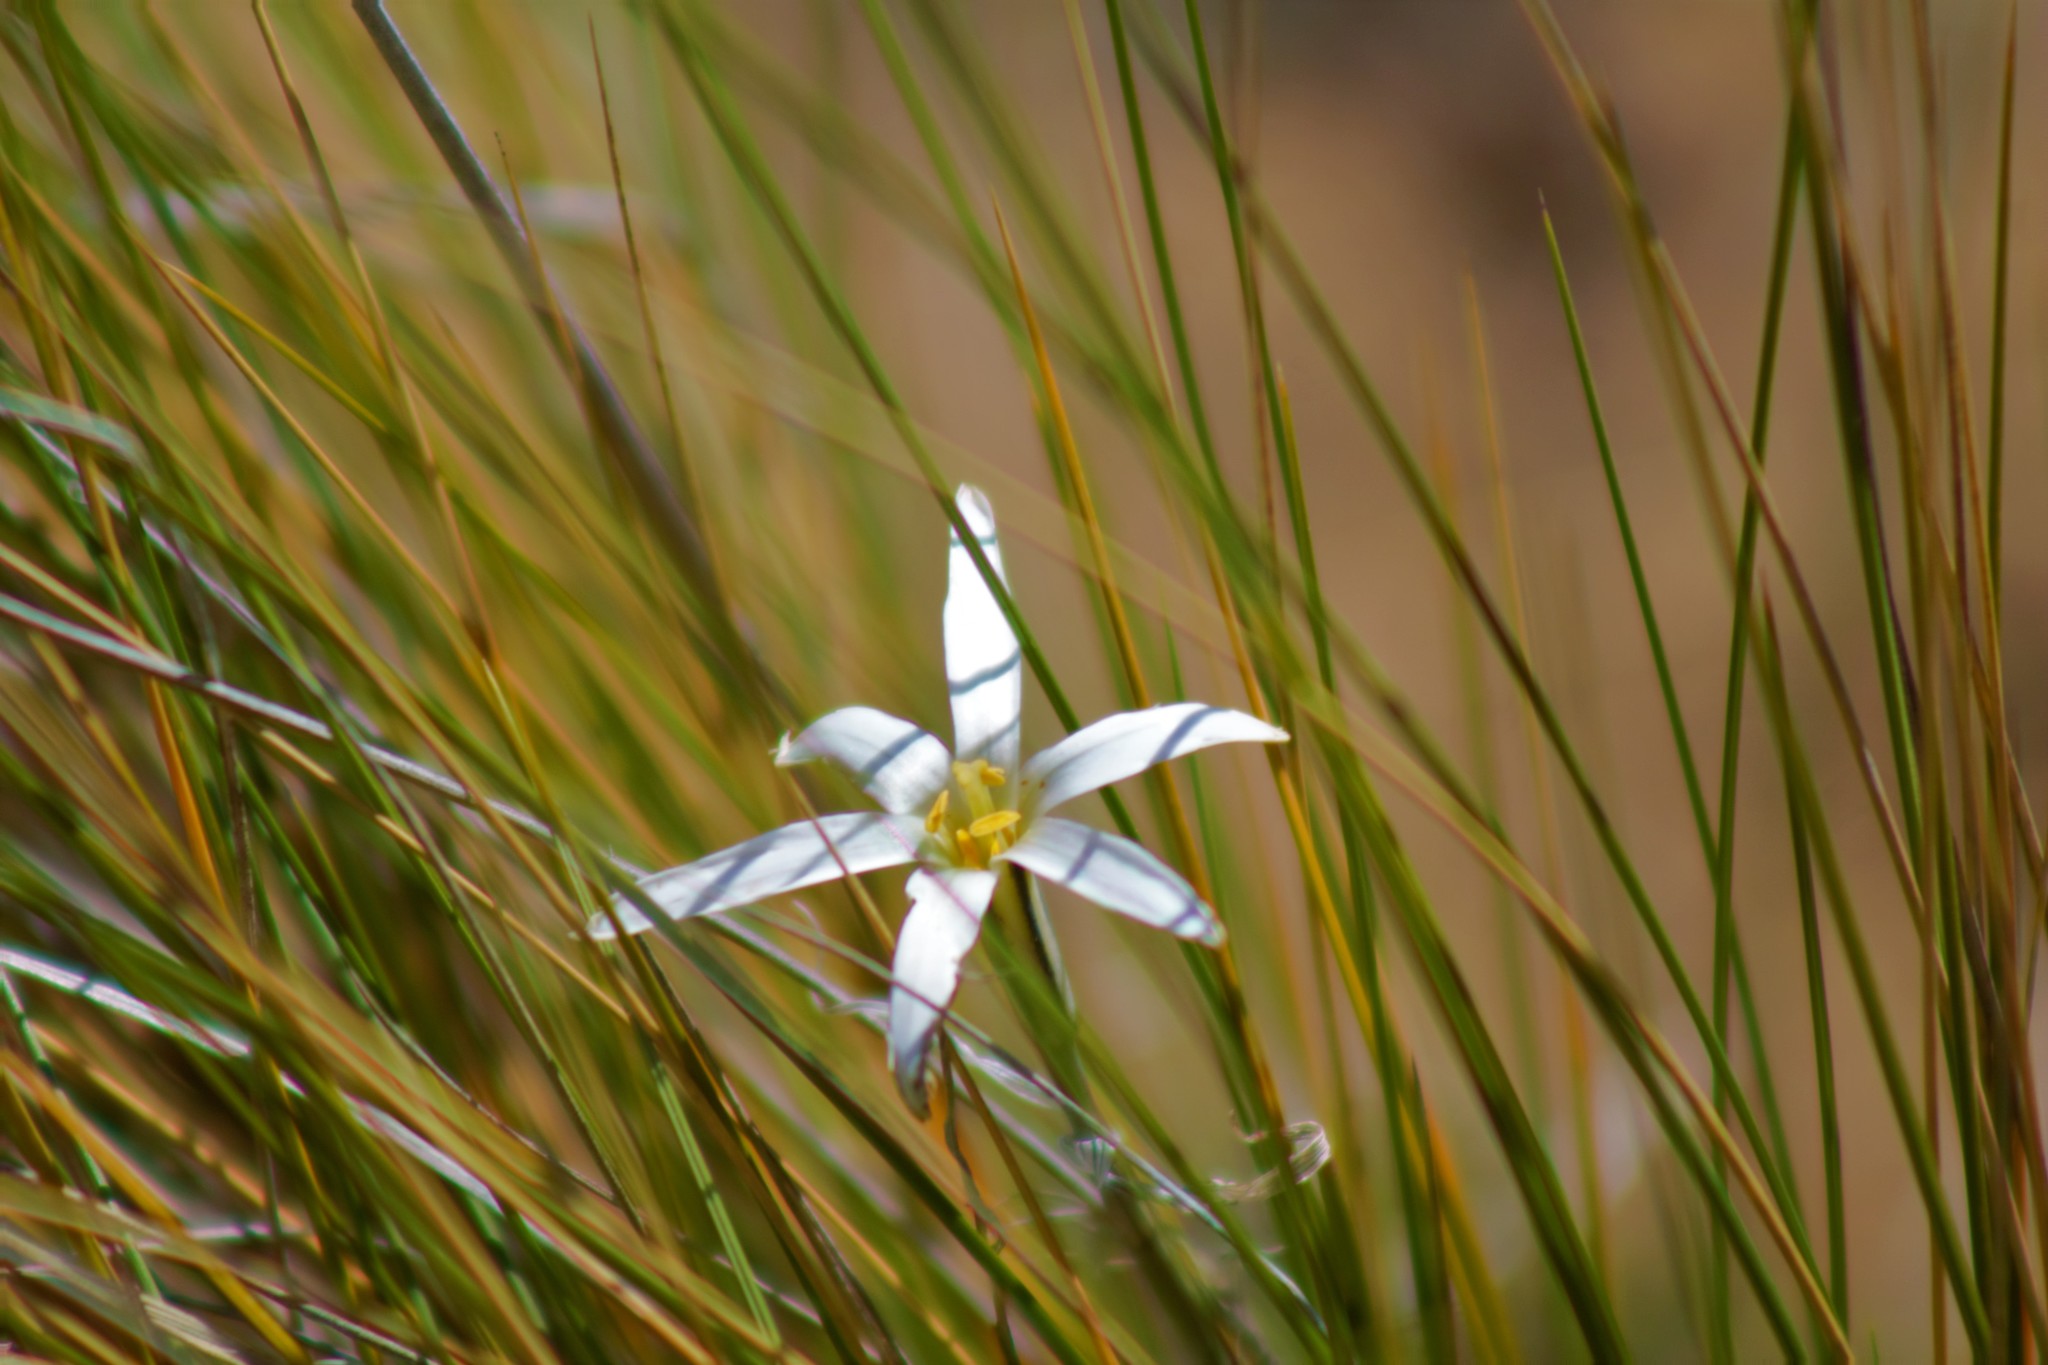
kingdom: Plantae
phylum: Tracheophyta
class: Liliopsida
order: Asparagales
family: Amaryllidaceae
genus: Tristagma
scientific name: Tristagma patagonicum
